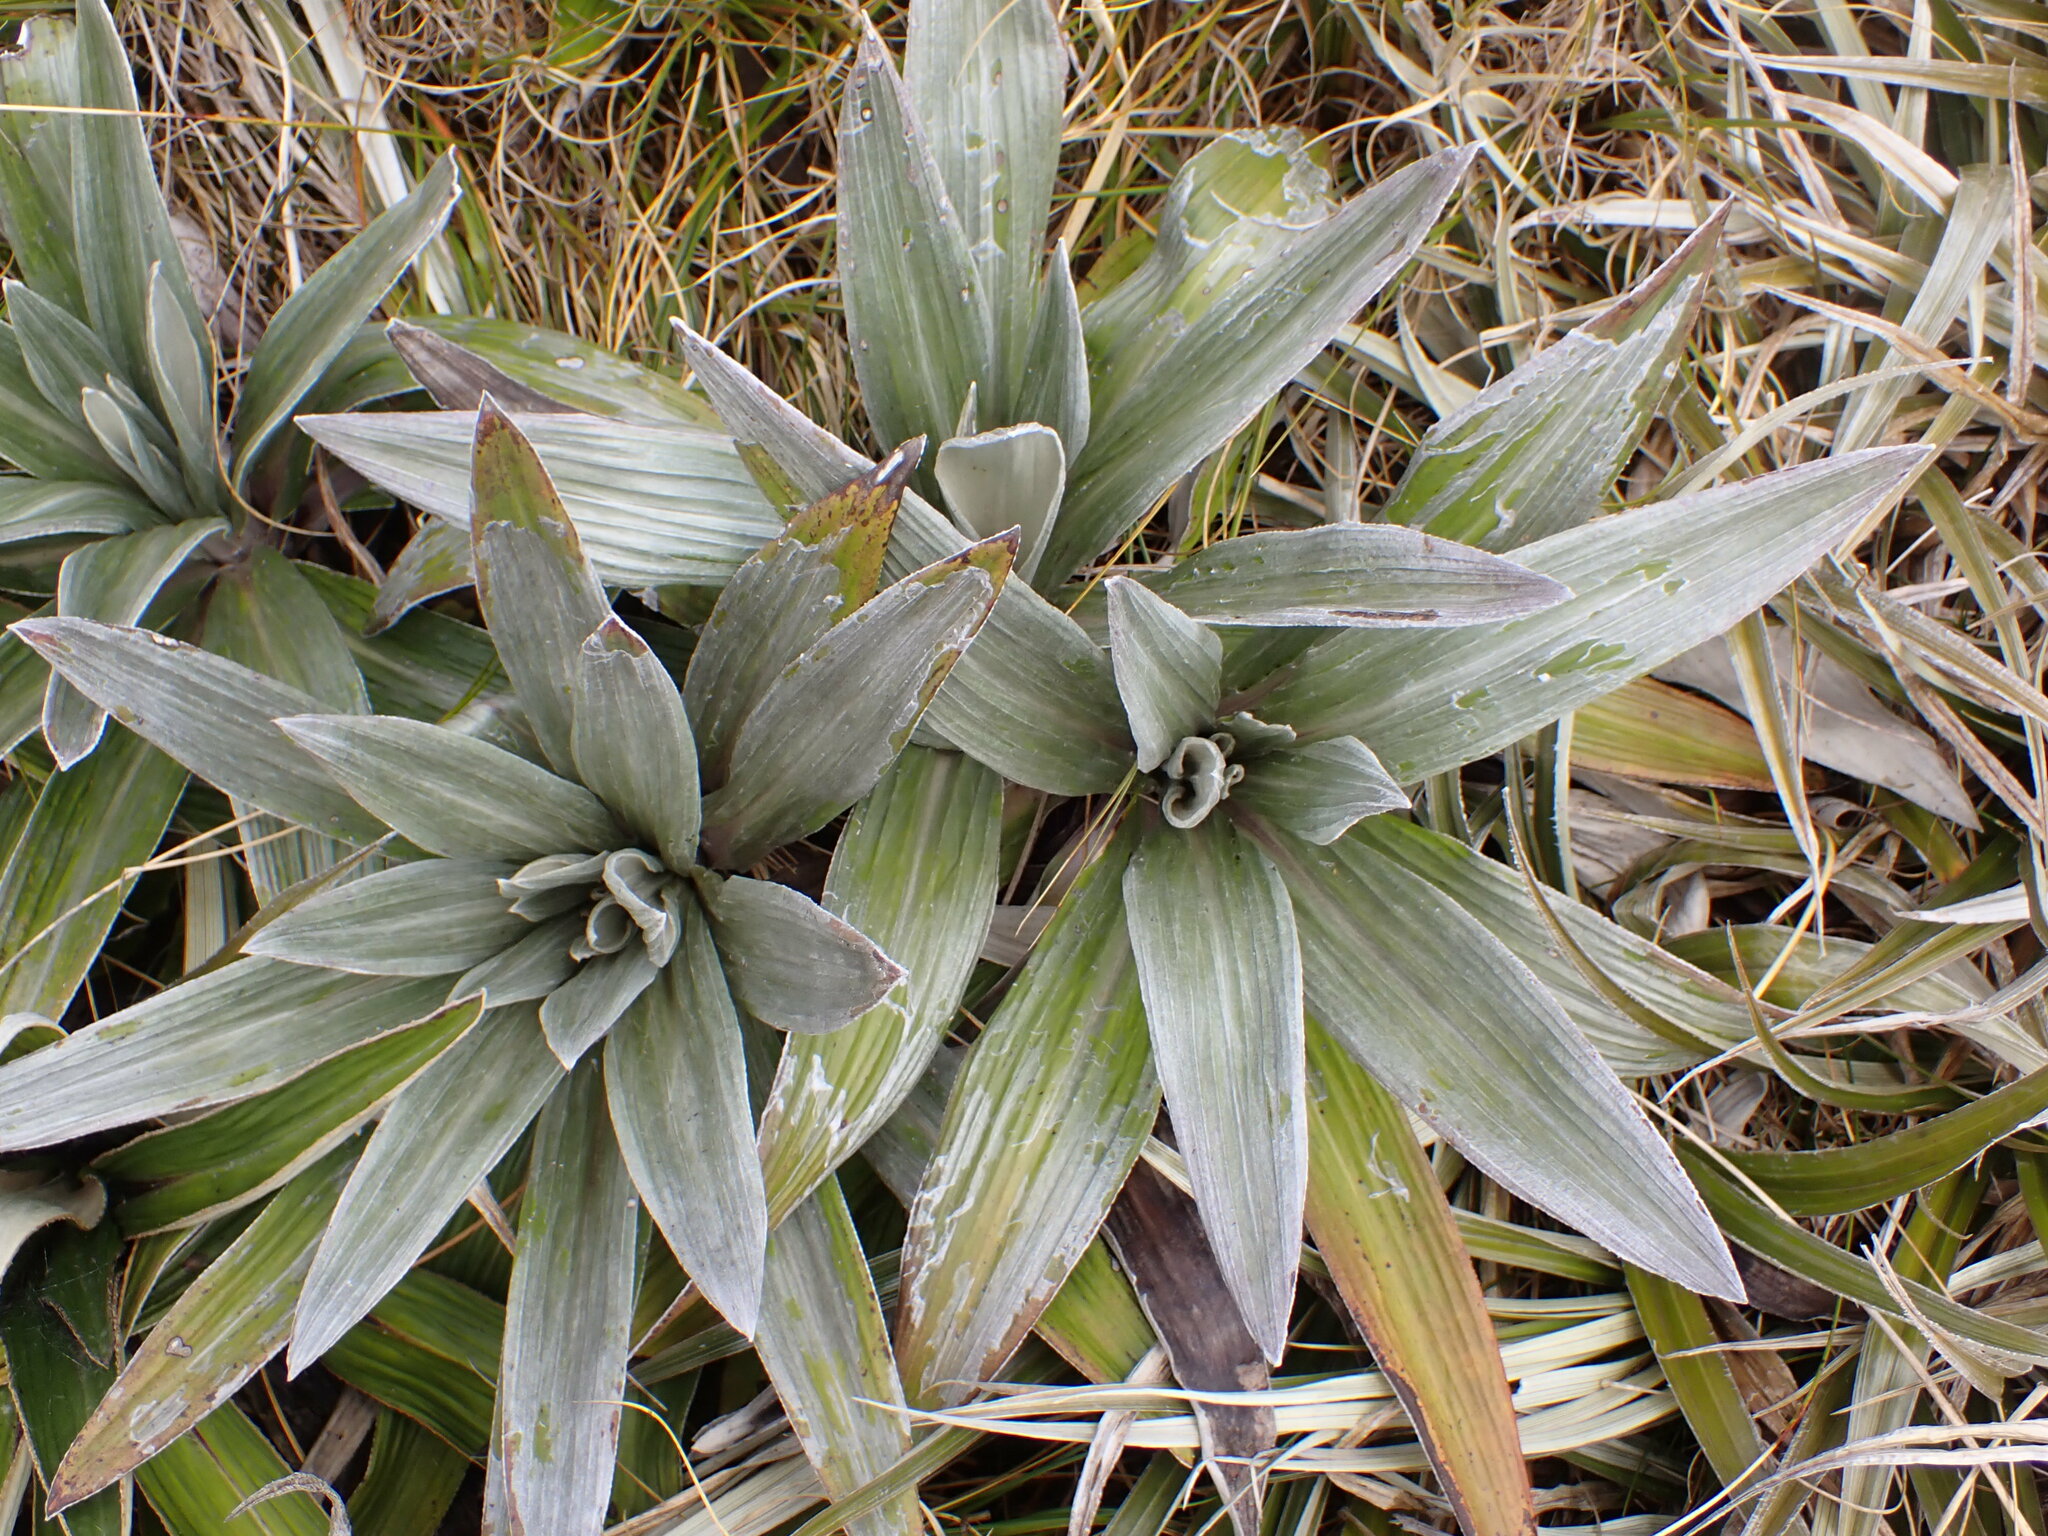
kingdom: Plantae
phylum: Tracheophyta
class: Magnoliopsida
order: Asterales
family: Asteraceae
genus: Celmisia
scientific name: Celmisia semicordata
